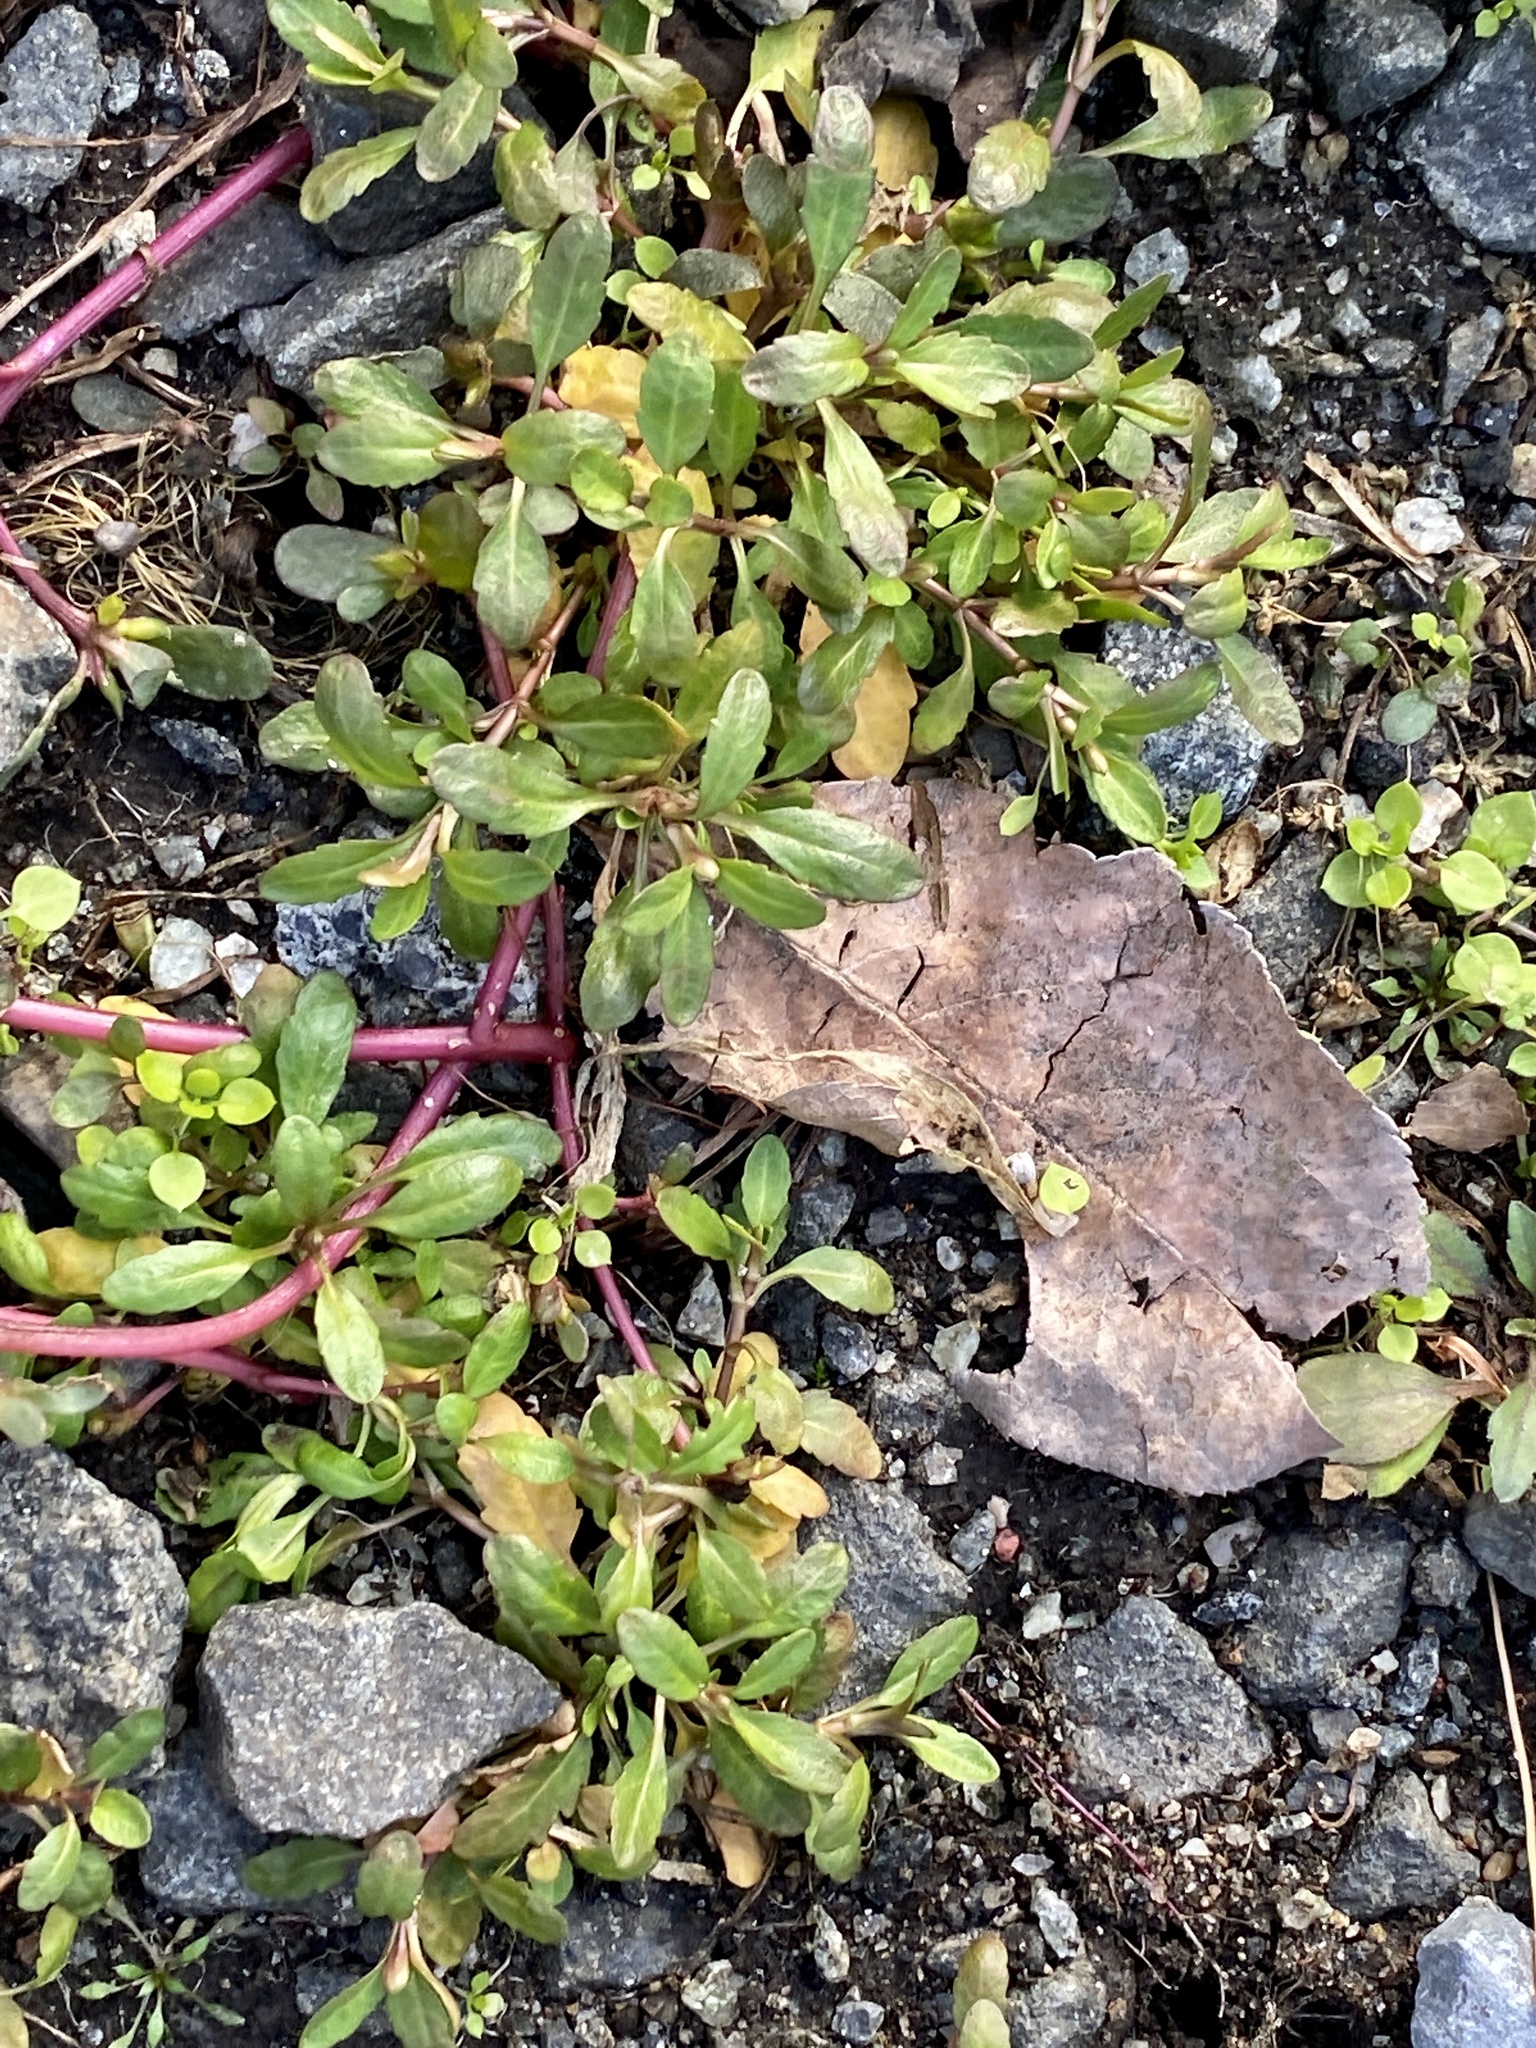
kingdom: Plantae
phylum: Tracheophyta
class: Magnoliopsida
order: Lamiales
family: Plantaginaceae
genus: Veronica
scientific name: Veronica peregrina
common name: Neckweed
